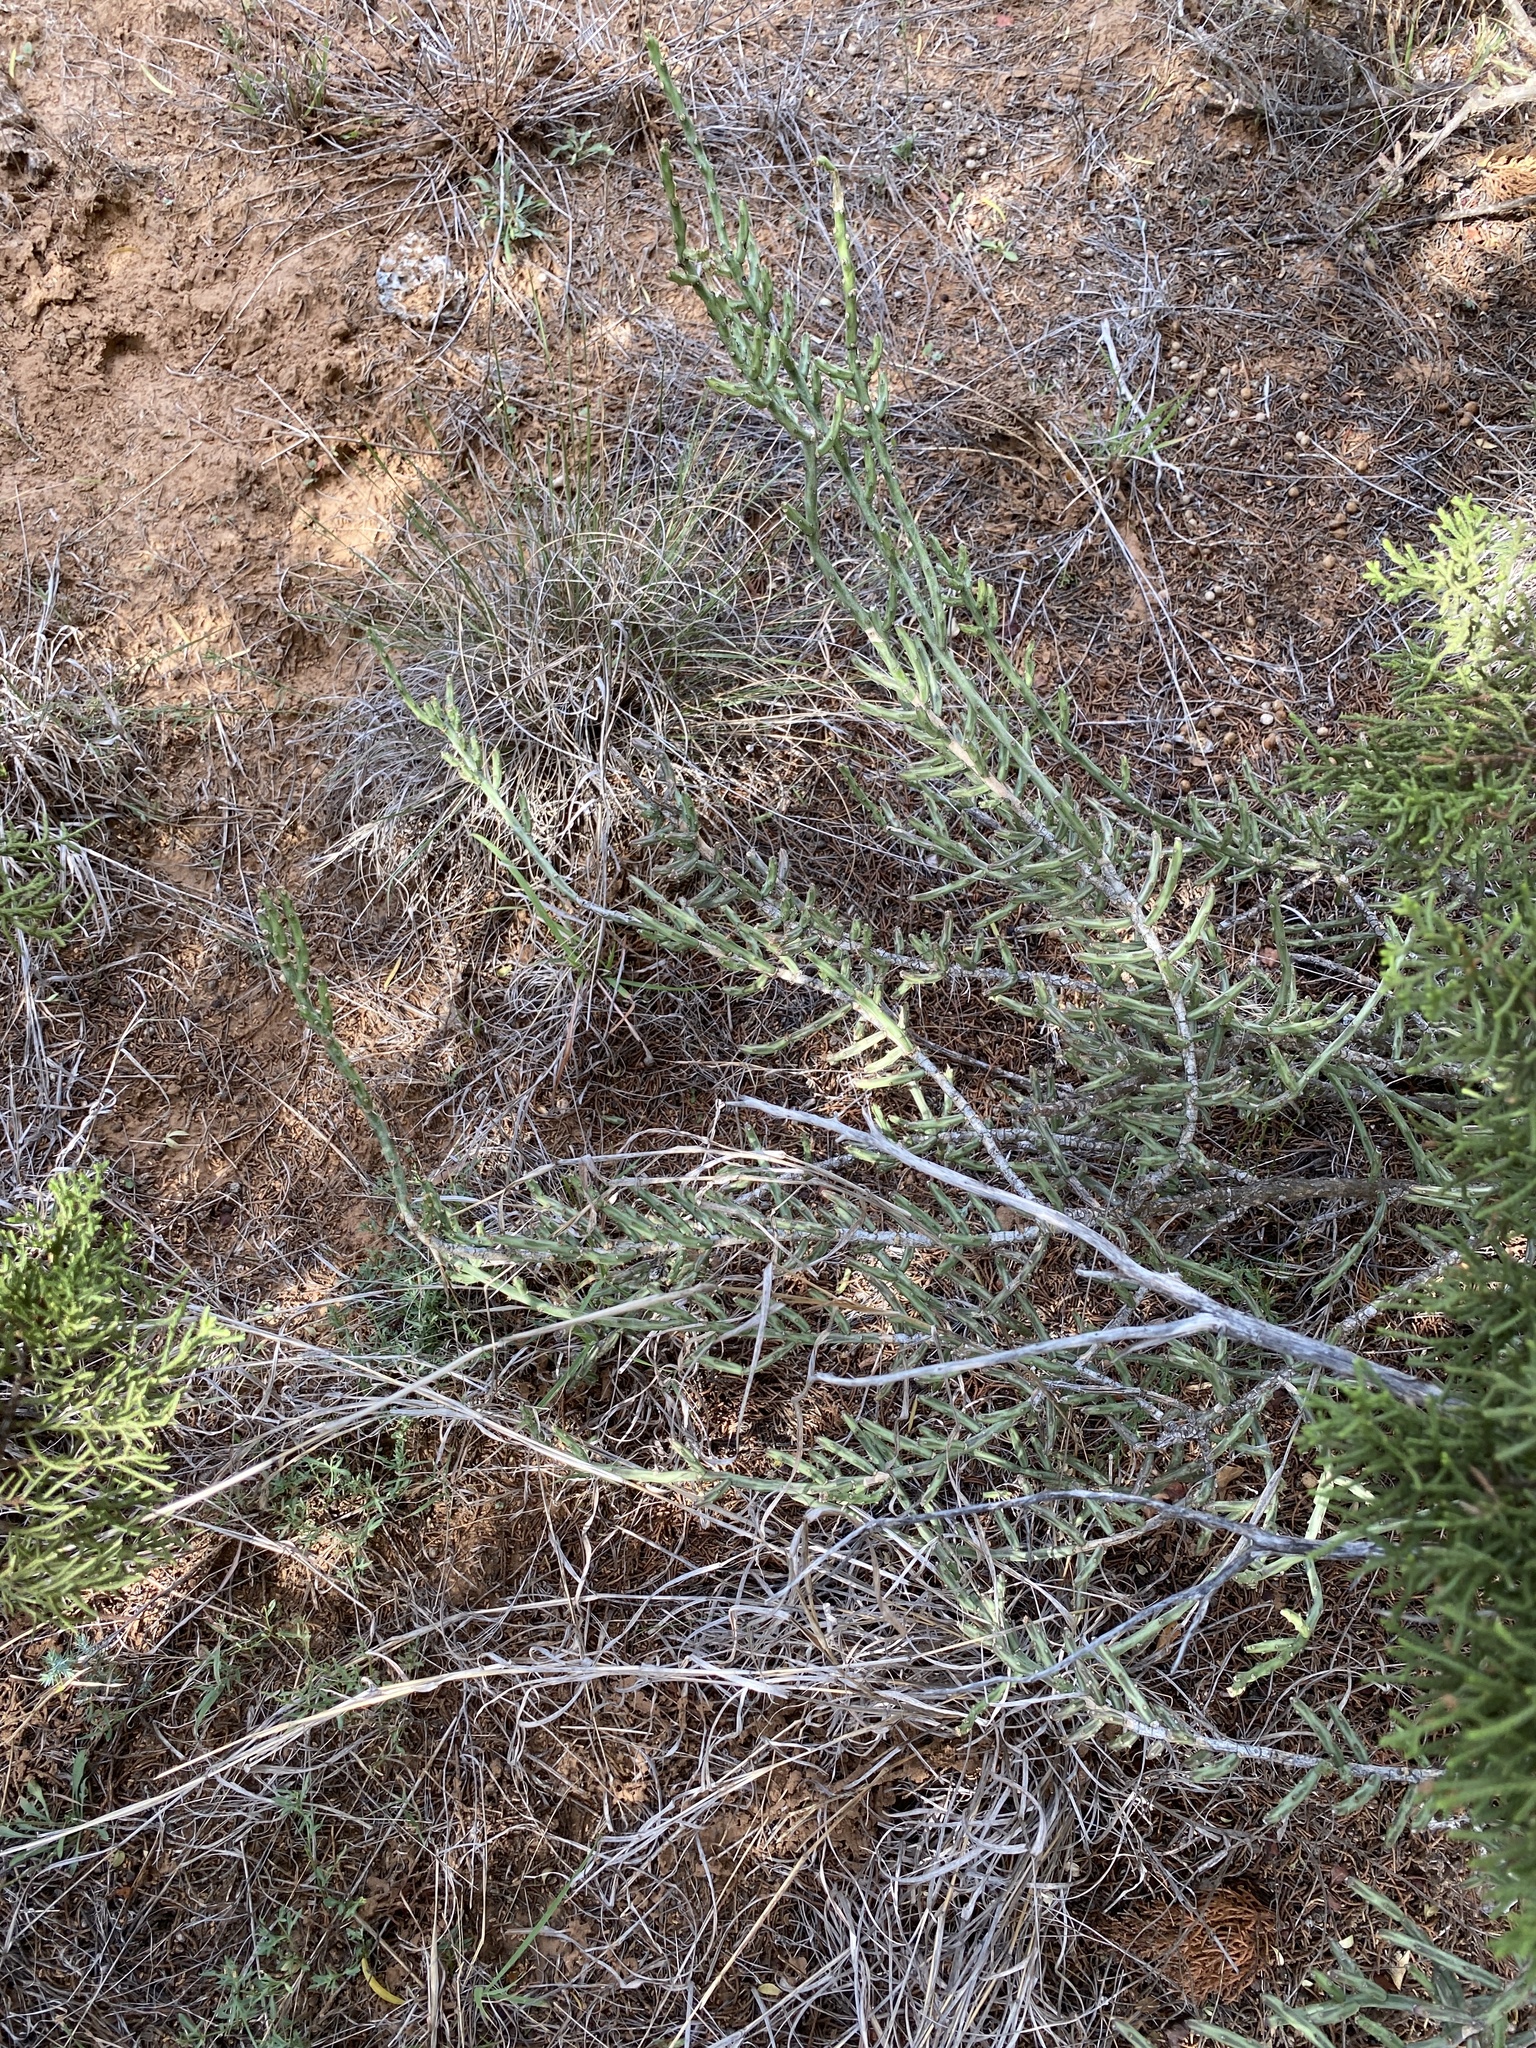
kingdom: Plantae
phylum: Tracheophyta
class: Magnoliopsida
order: Caryophyllales
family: Cactaceae
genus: Cylindropuntia
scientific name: Cylindropuntia leptocaulis
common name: Christmas cactus
